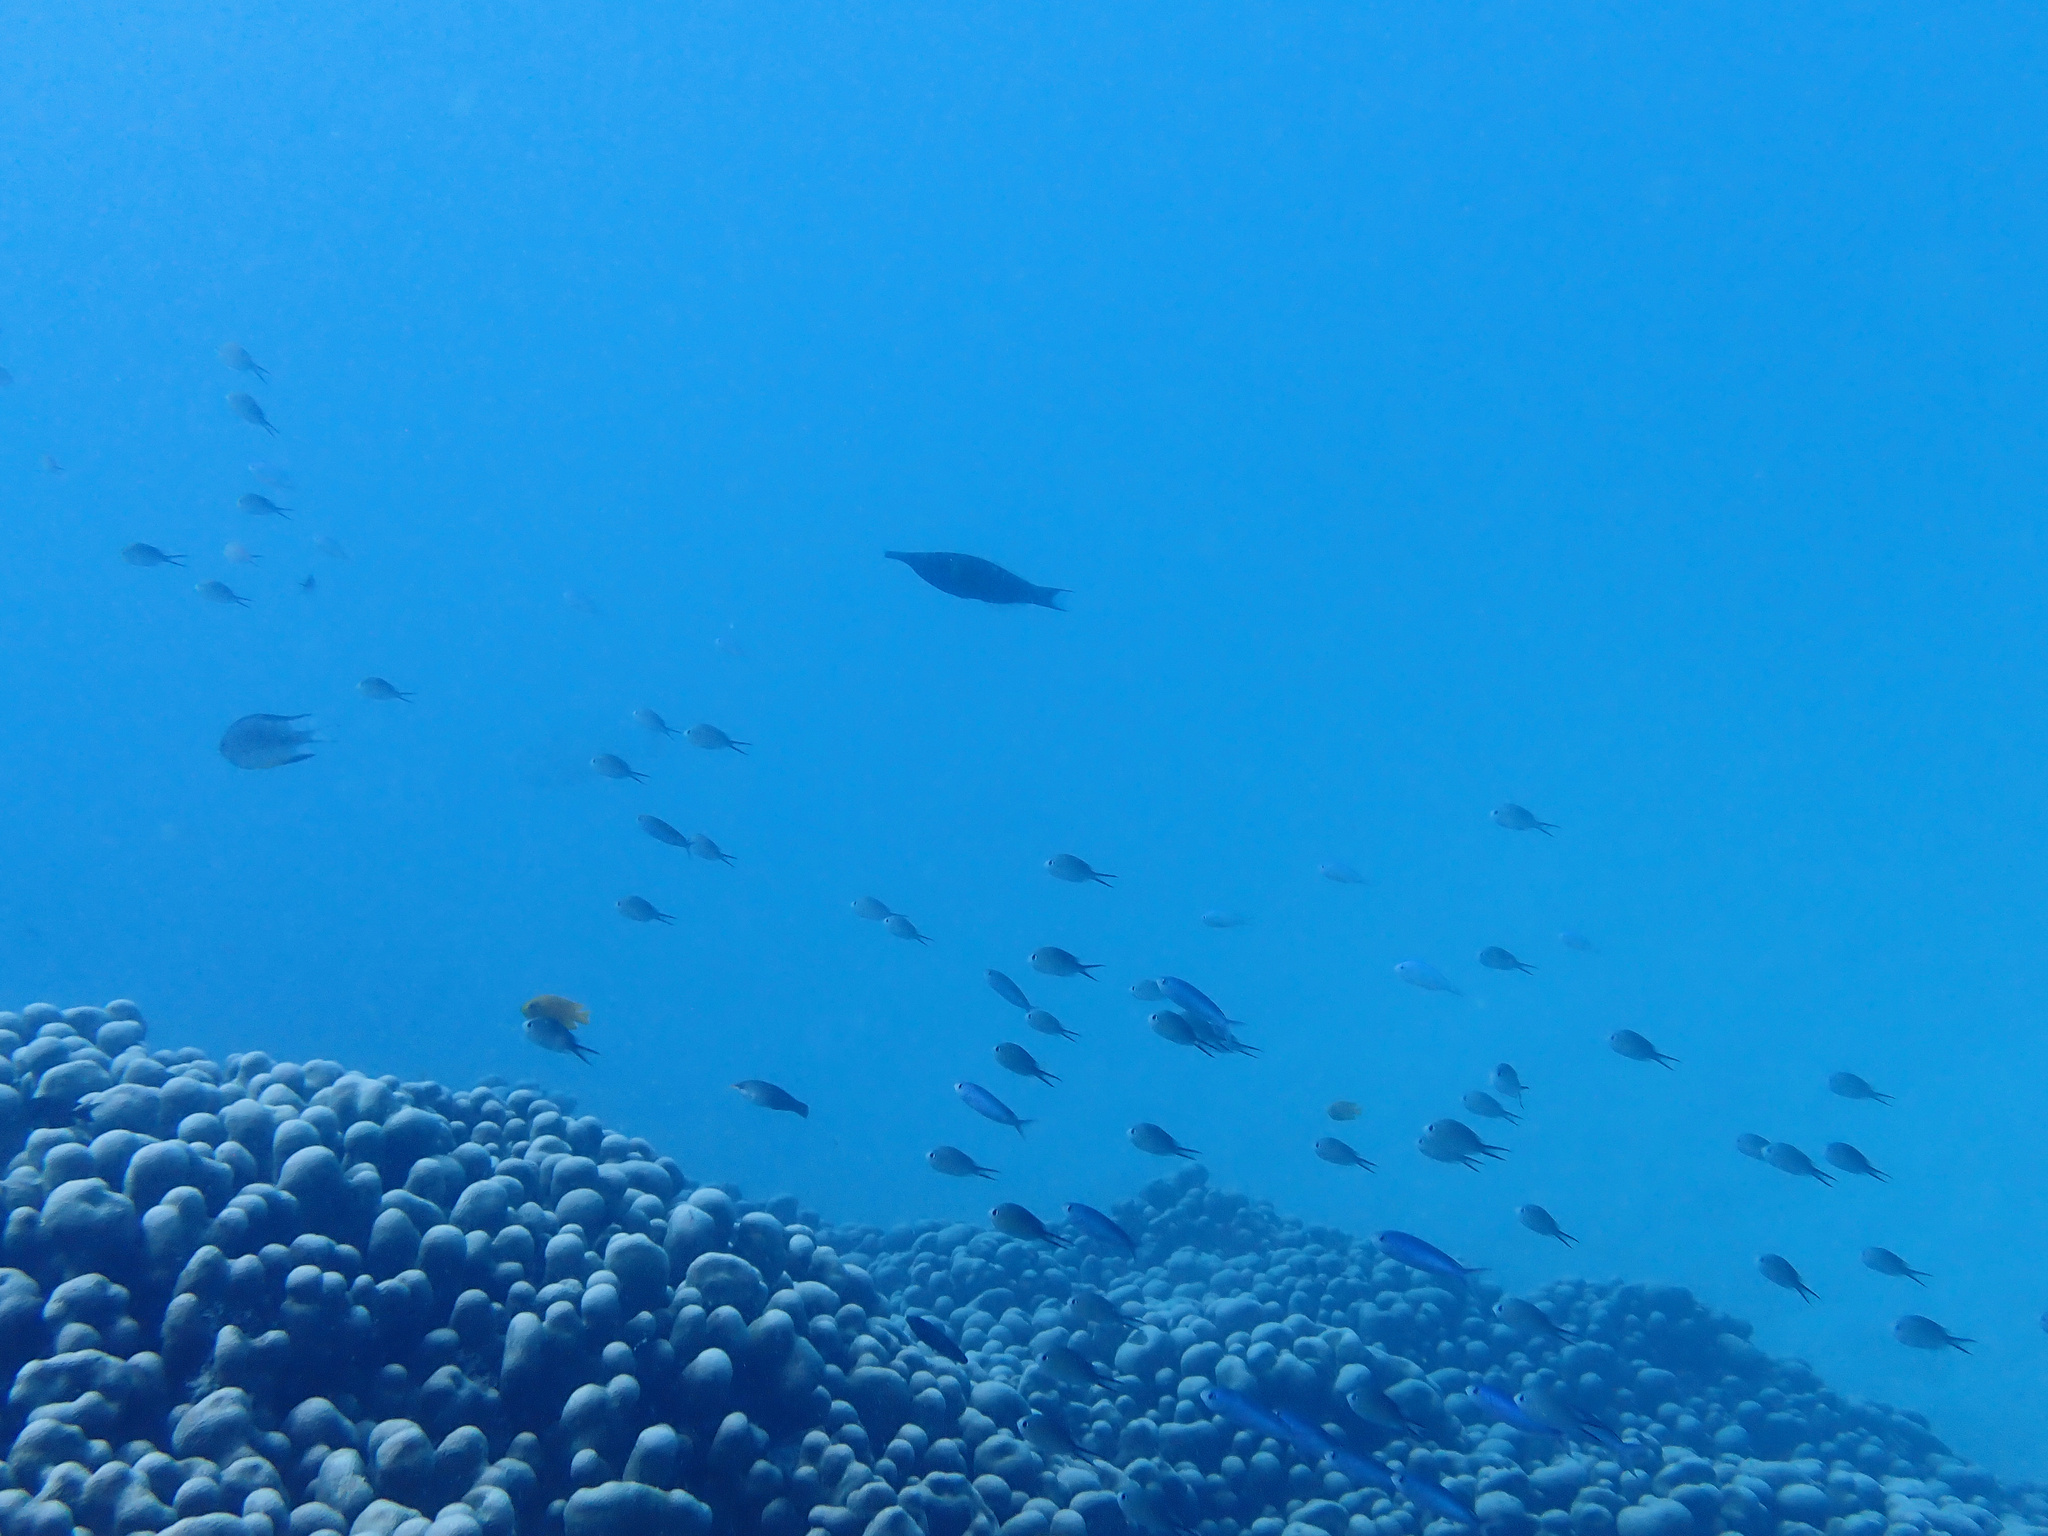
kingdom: Animalia
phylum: Chordata
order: Perciformes
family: Labridae
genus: Gomphosus
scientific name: Gomphosus varius
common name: Bird wrasse
